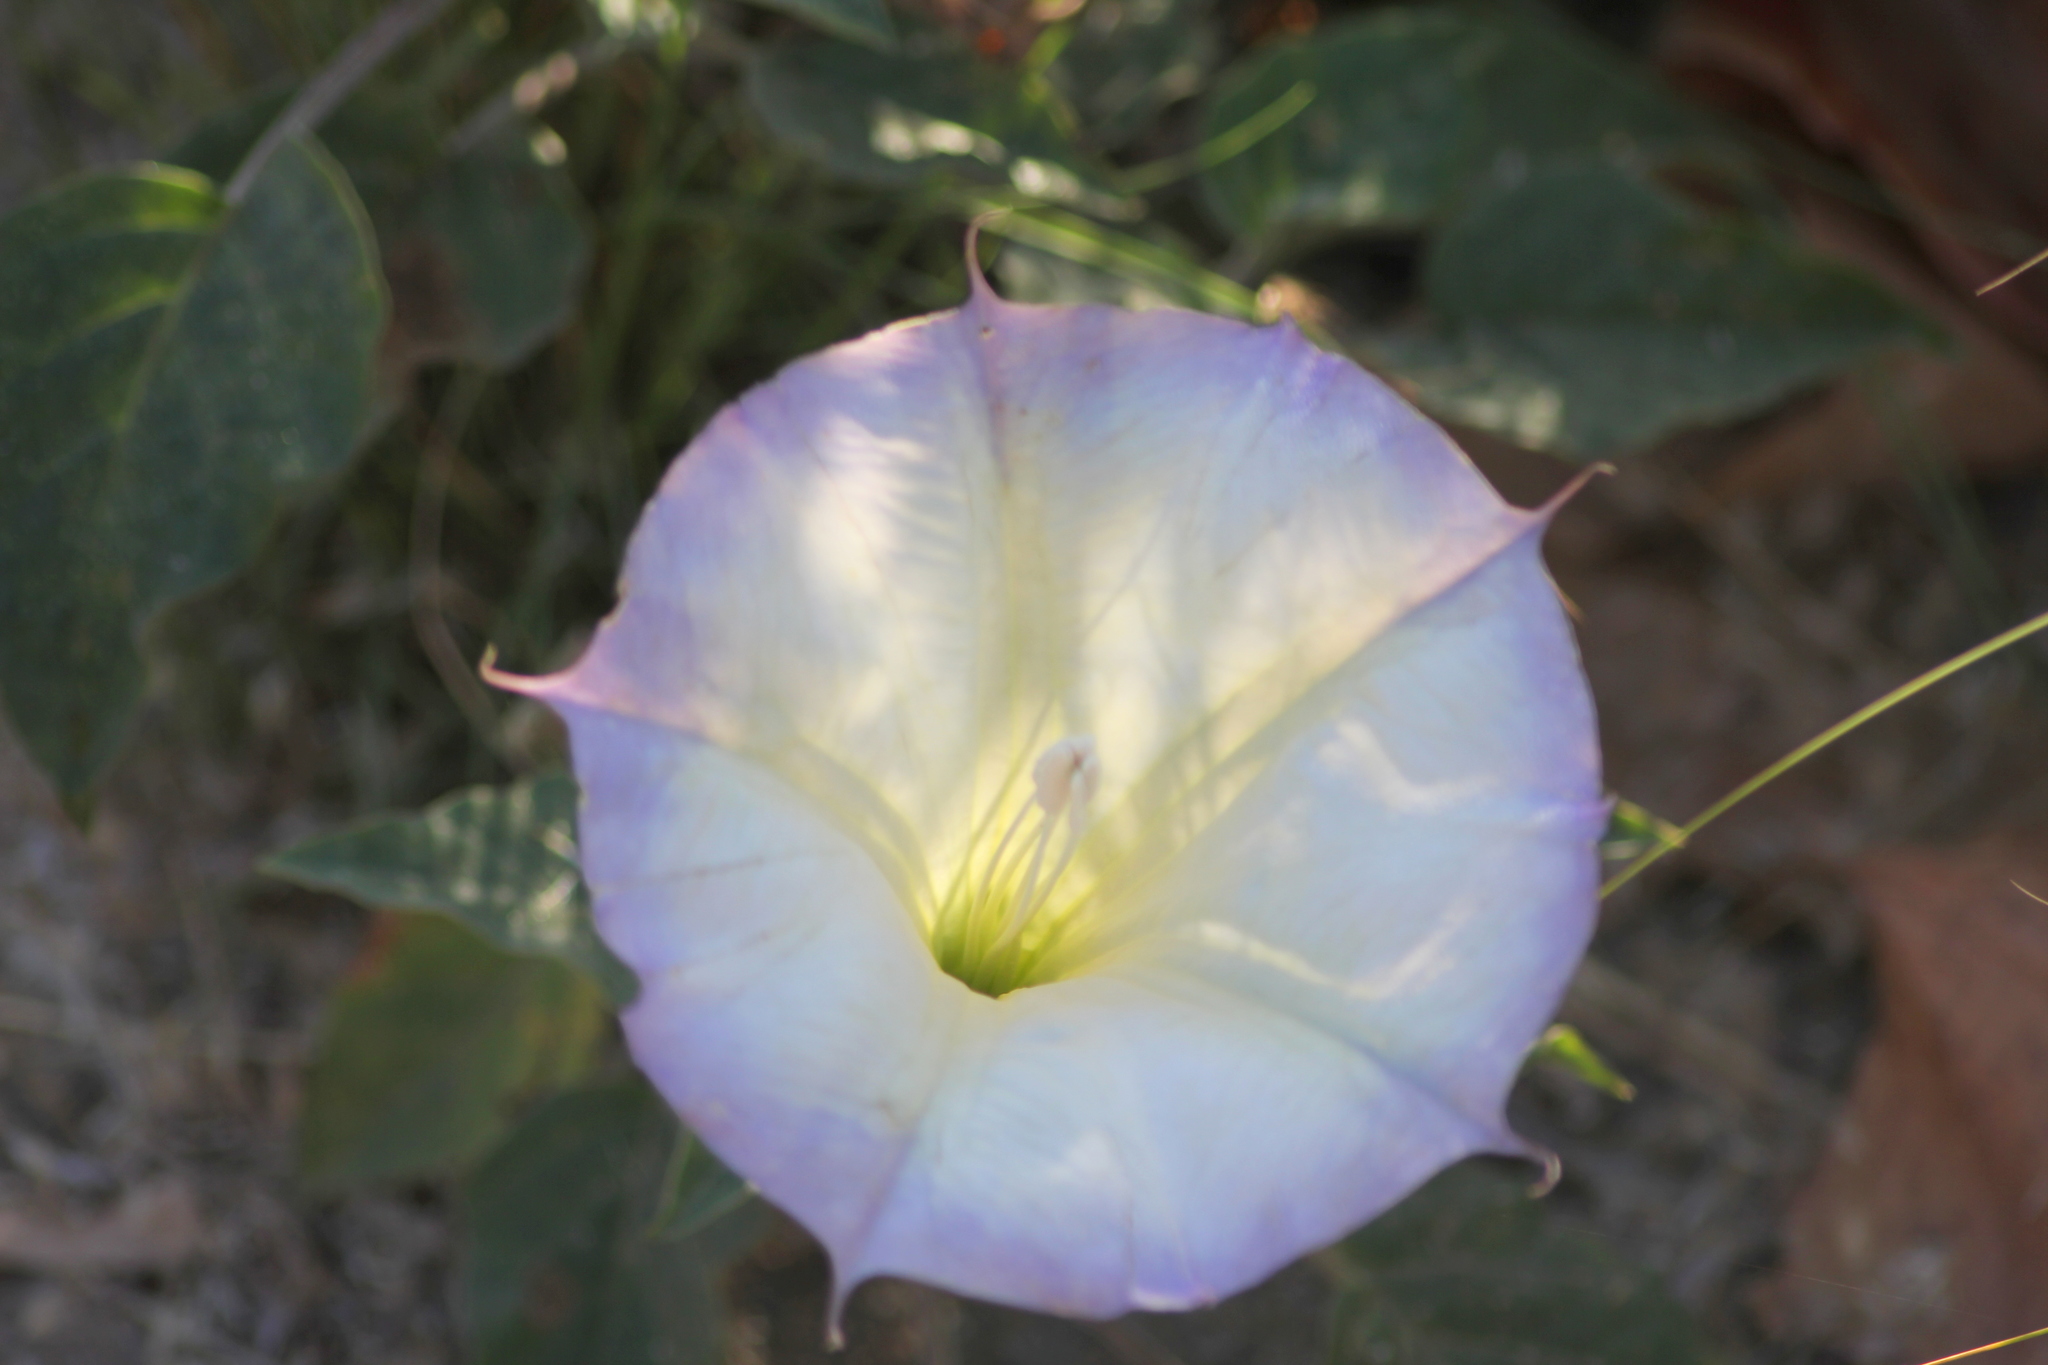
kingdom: Plantae
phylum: Tracheophyta
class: Magnoliopsida
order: Solanales
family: Solanaceae
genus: Datura
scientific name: Datura wrightii
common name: Sacred thorn-apple
